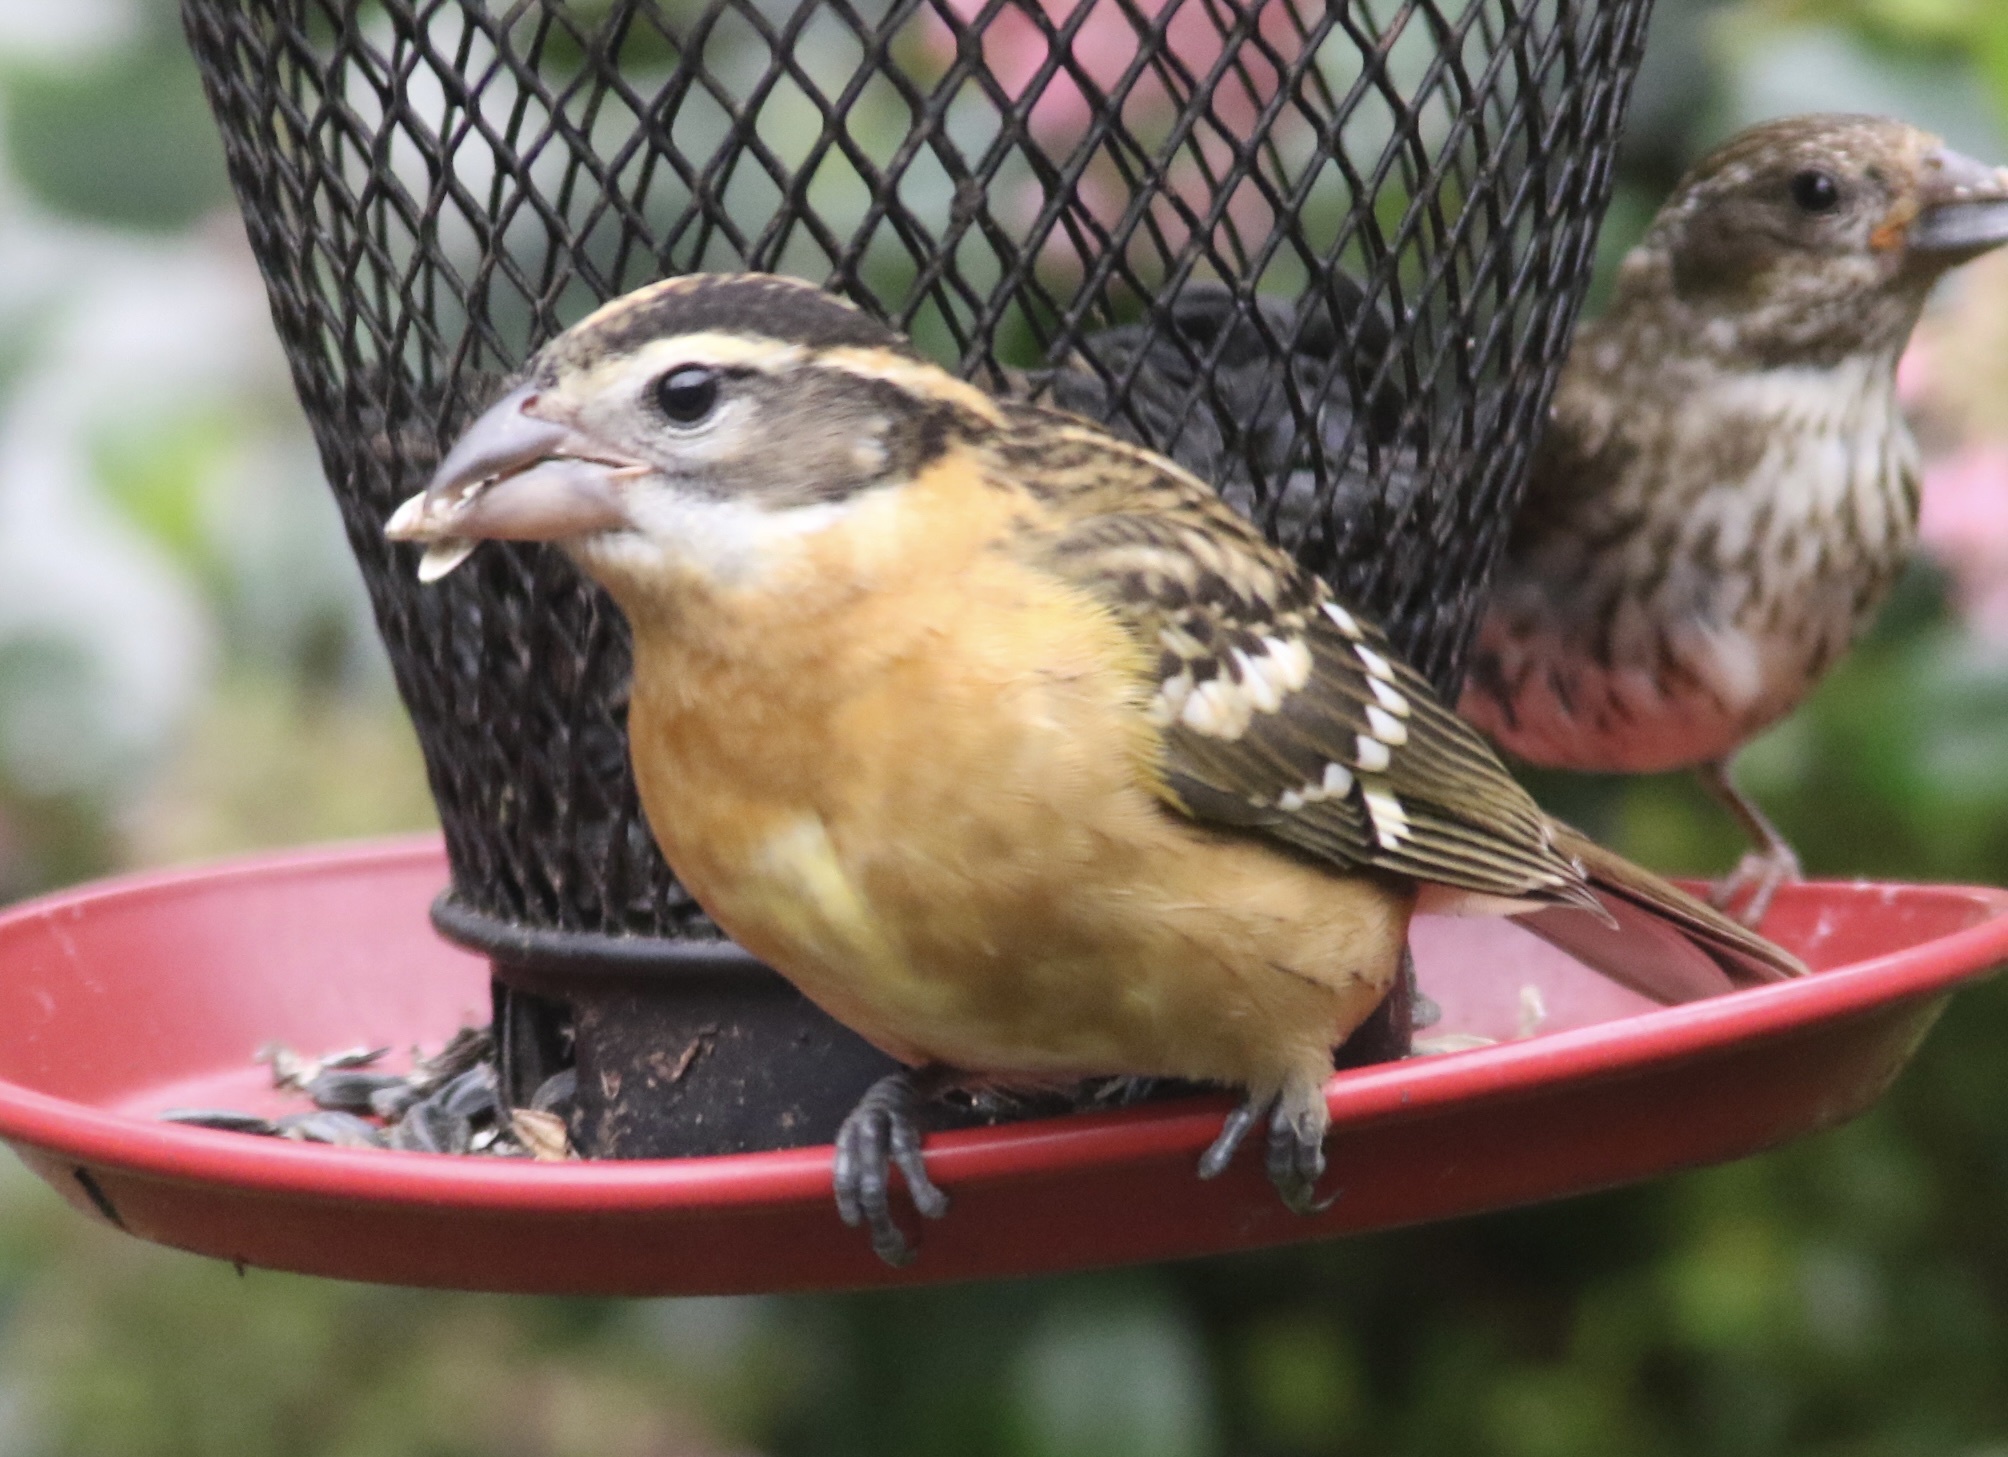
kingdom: Animalia
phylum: Chordata
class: Aves
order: Passeriformes
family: Cardinalidae
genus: Pheucticus
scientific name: Pheucticus melanocephalus
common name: Black-headed grosbeak
